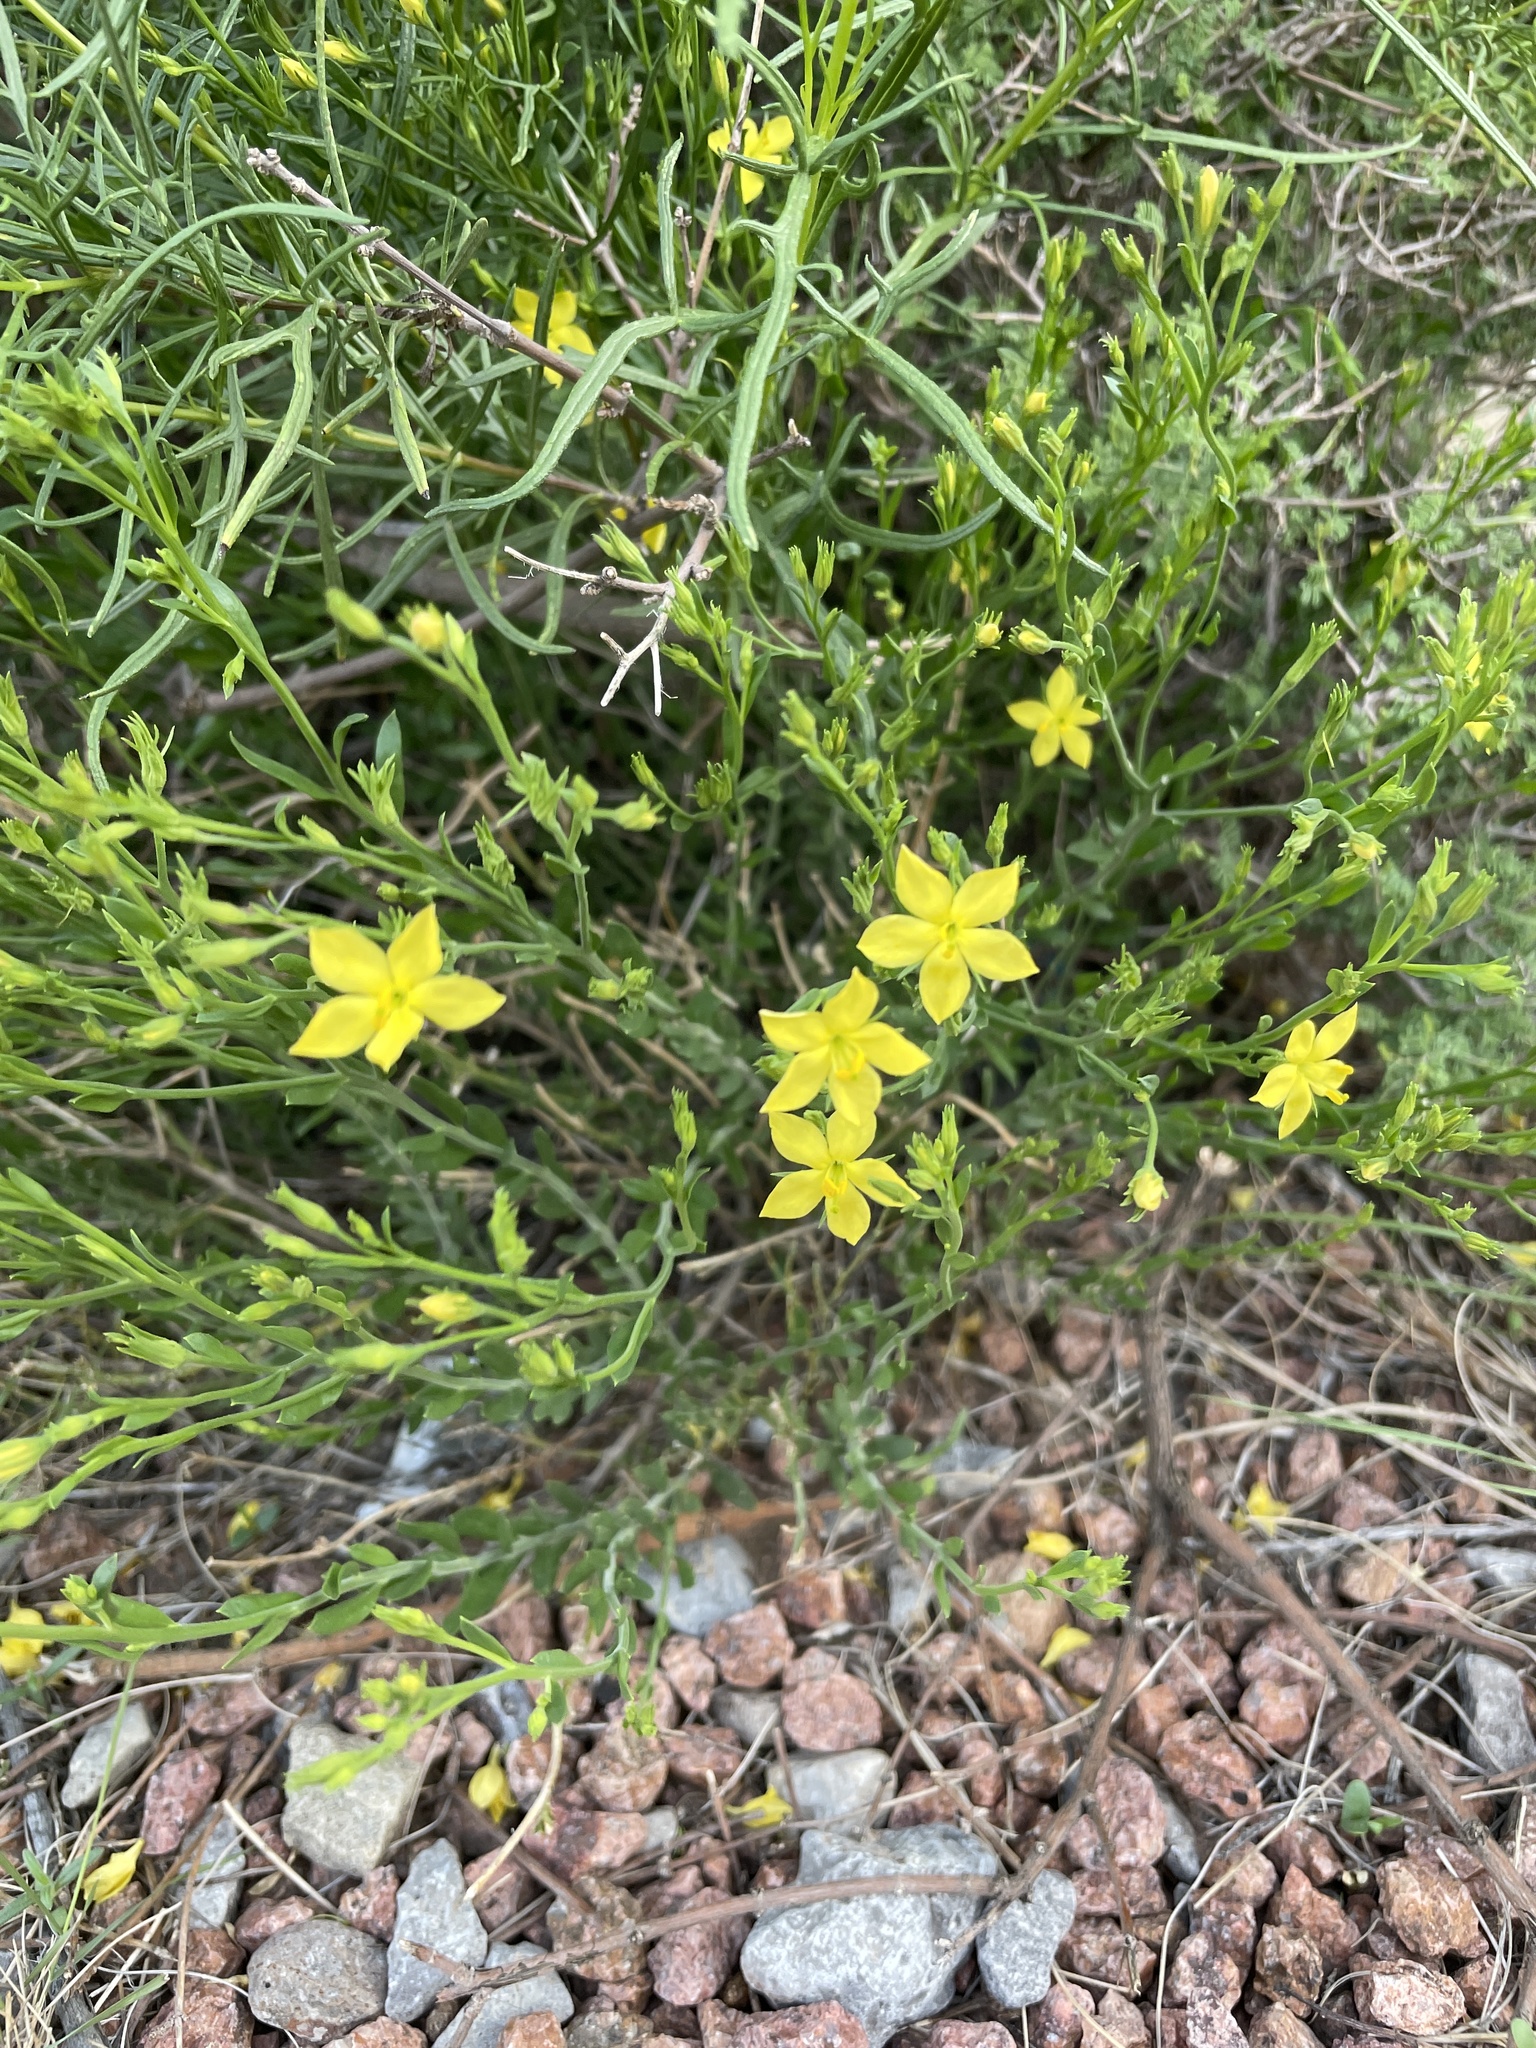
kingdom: Plantae
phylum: Tracheophyta
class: Magnoliopsida
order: Lamiales
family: Oleaceae
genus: Menodora
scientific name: Menodora scabra
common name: Rough menodora
